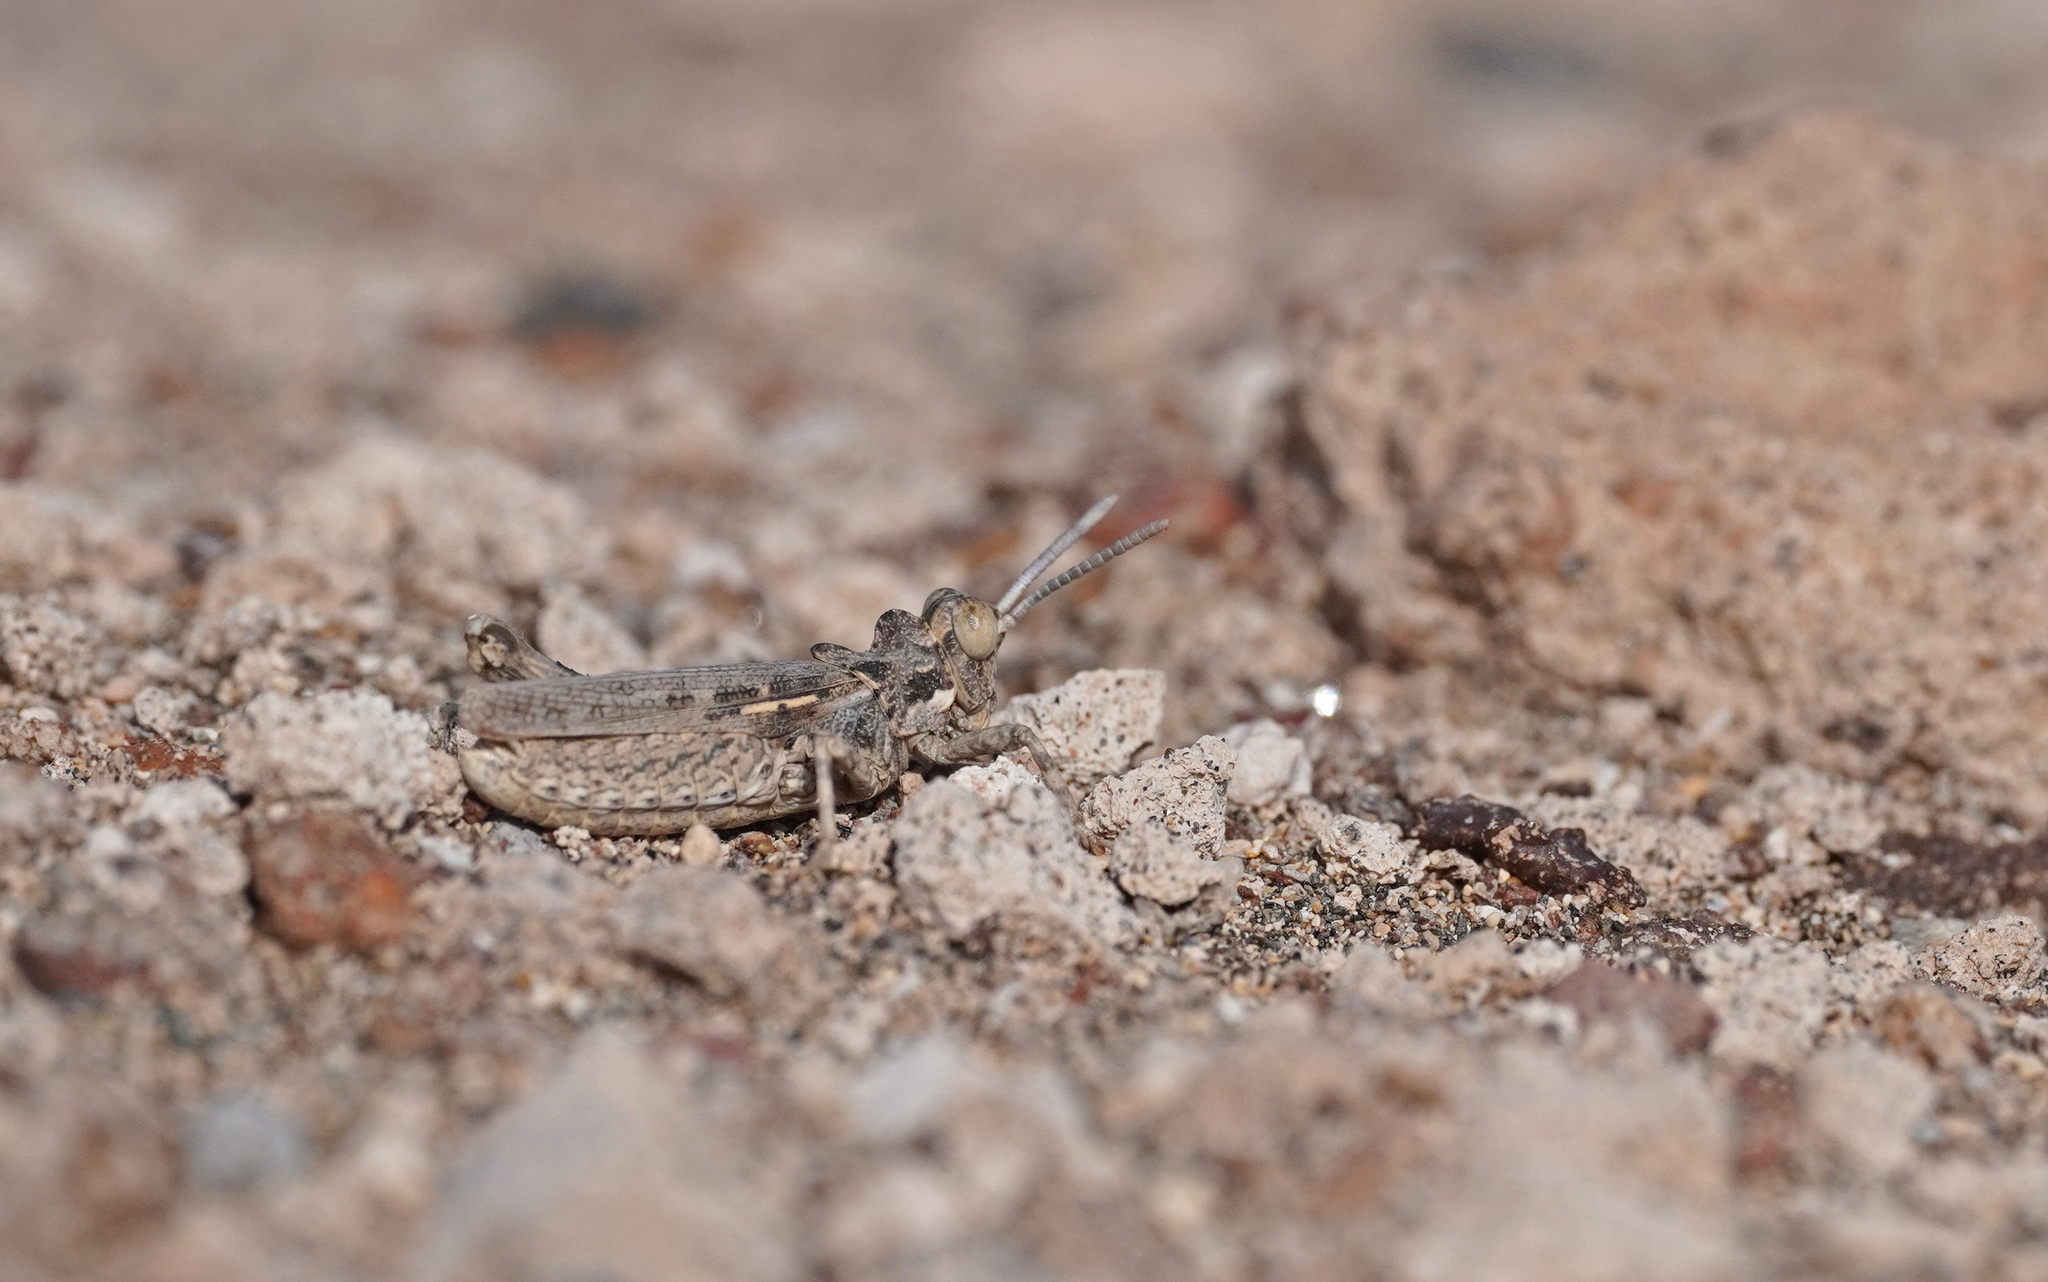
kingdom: Animalia
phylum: Arthropoda
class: Insecta
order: Orthoptera
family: Dericorythidae
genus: Dericorys
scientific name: Dericorys minutus
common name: Gran canaria crested grasshopper
